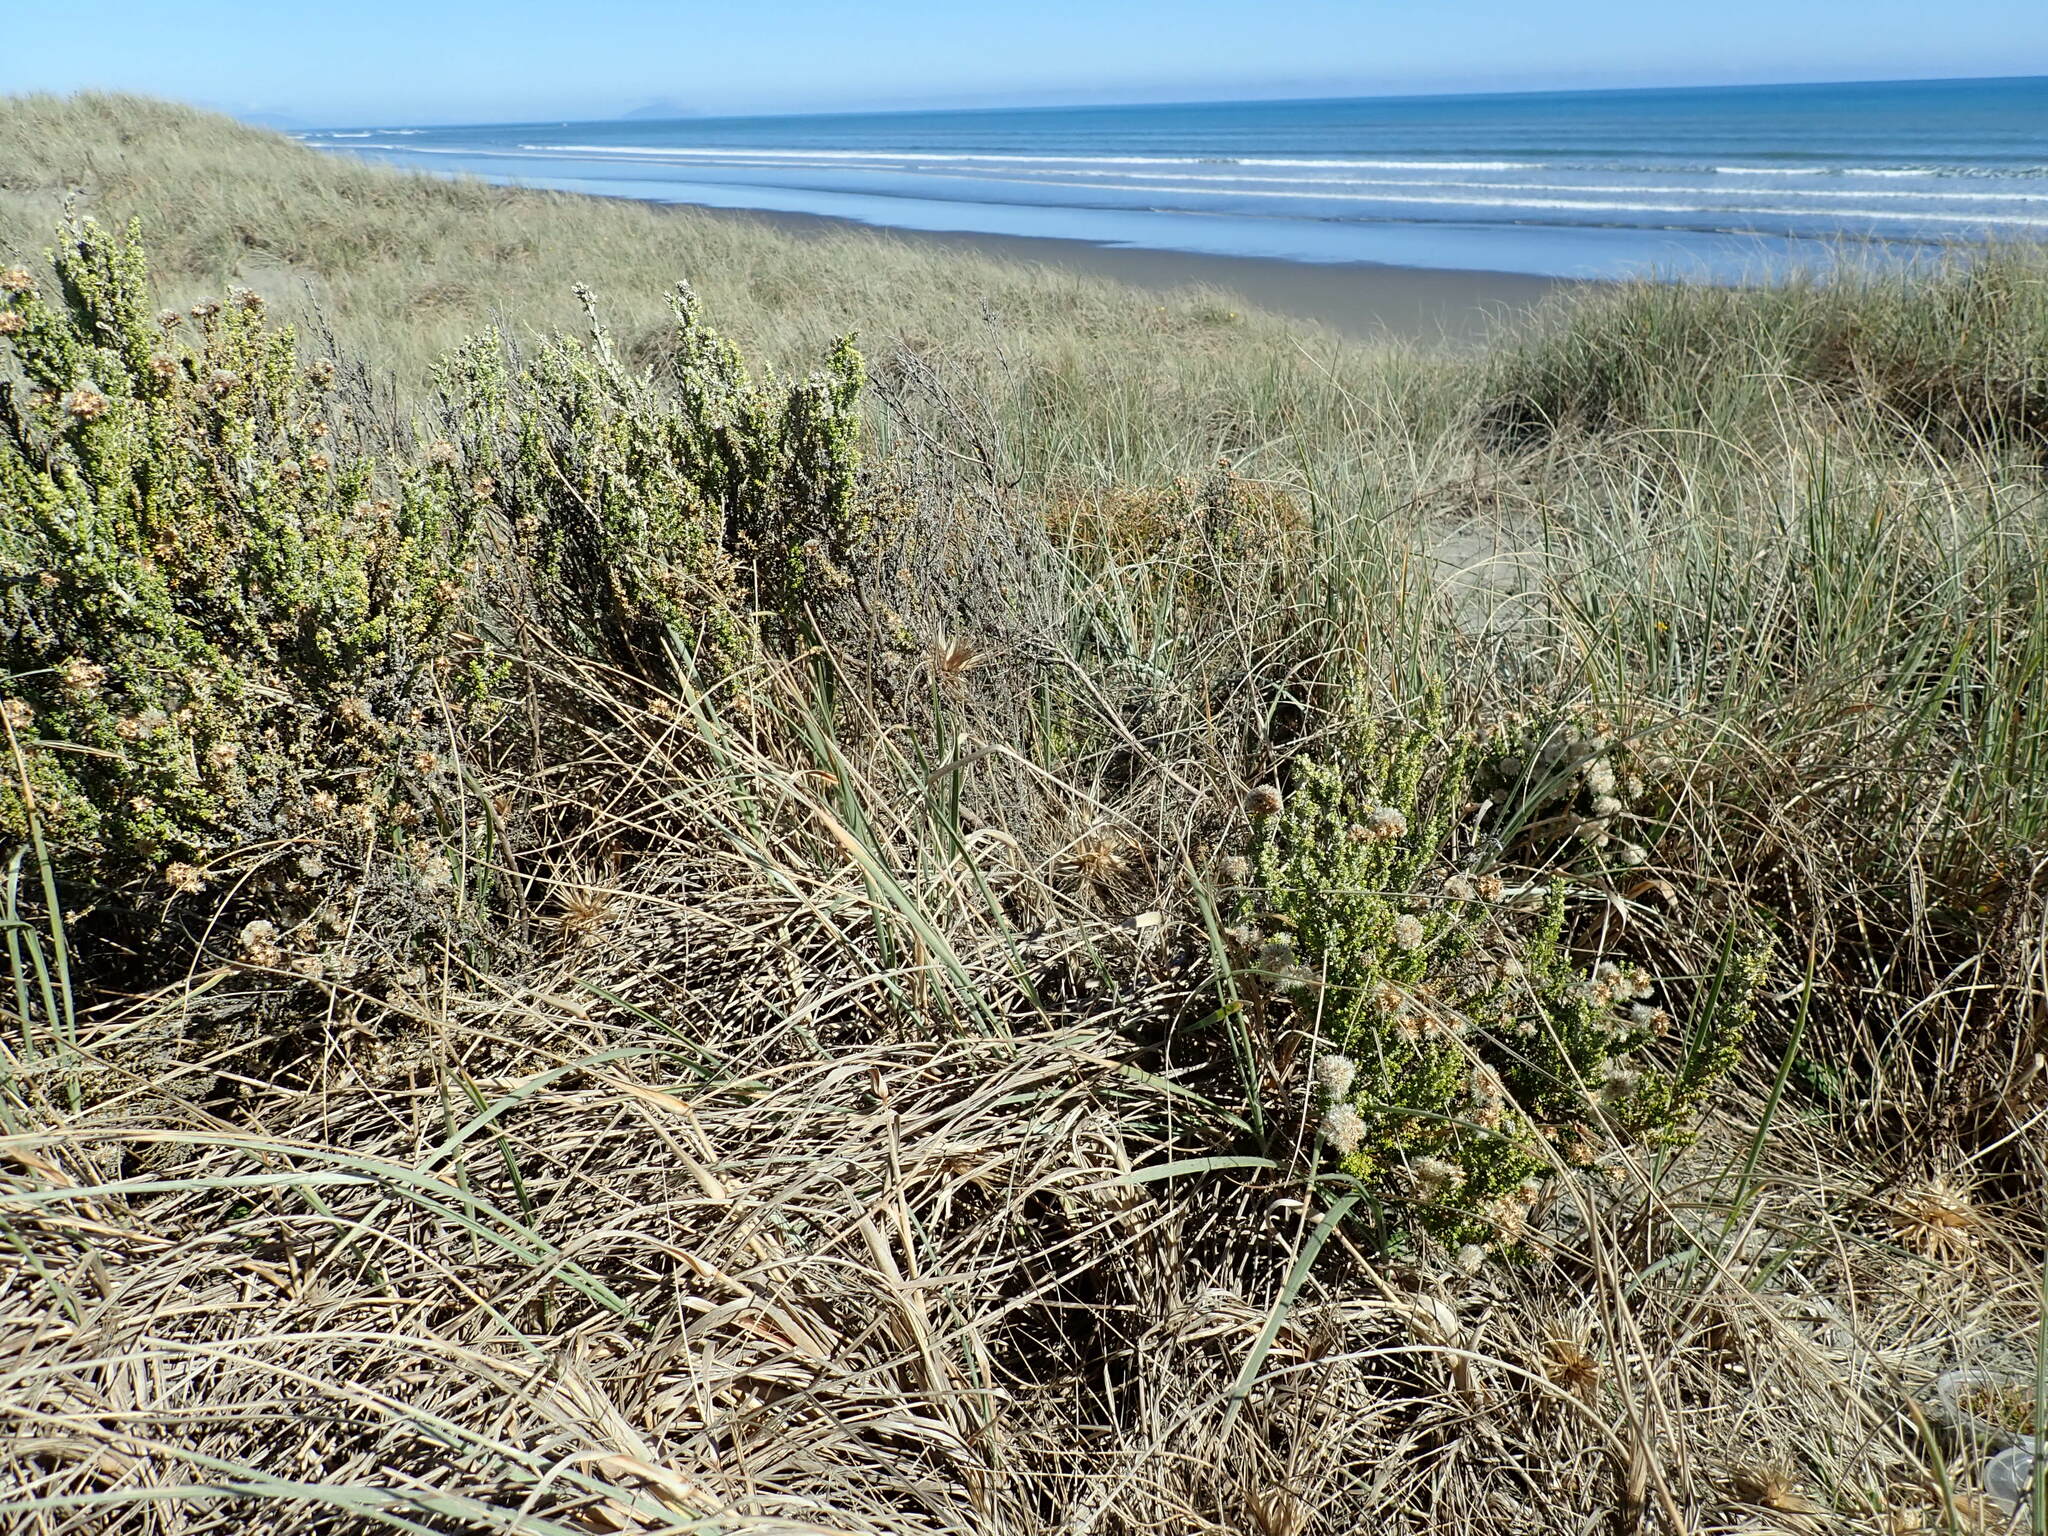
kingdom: Plantae
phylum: Tracheophyta
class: Magnoliopsida
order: Asterales
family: Asteraceae
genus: Ozothamnus
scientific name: Ozothamnus leptophyllus
